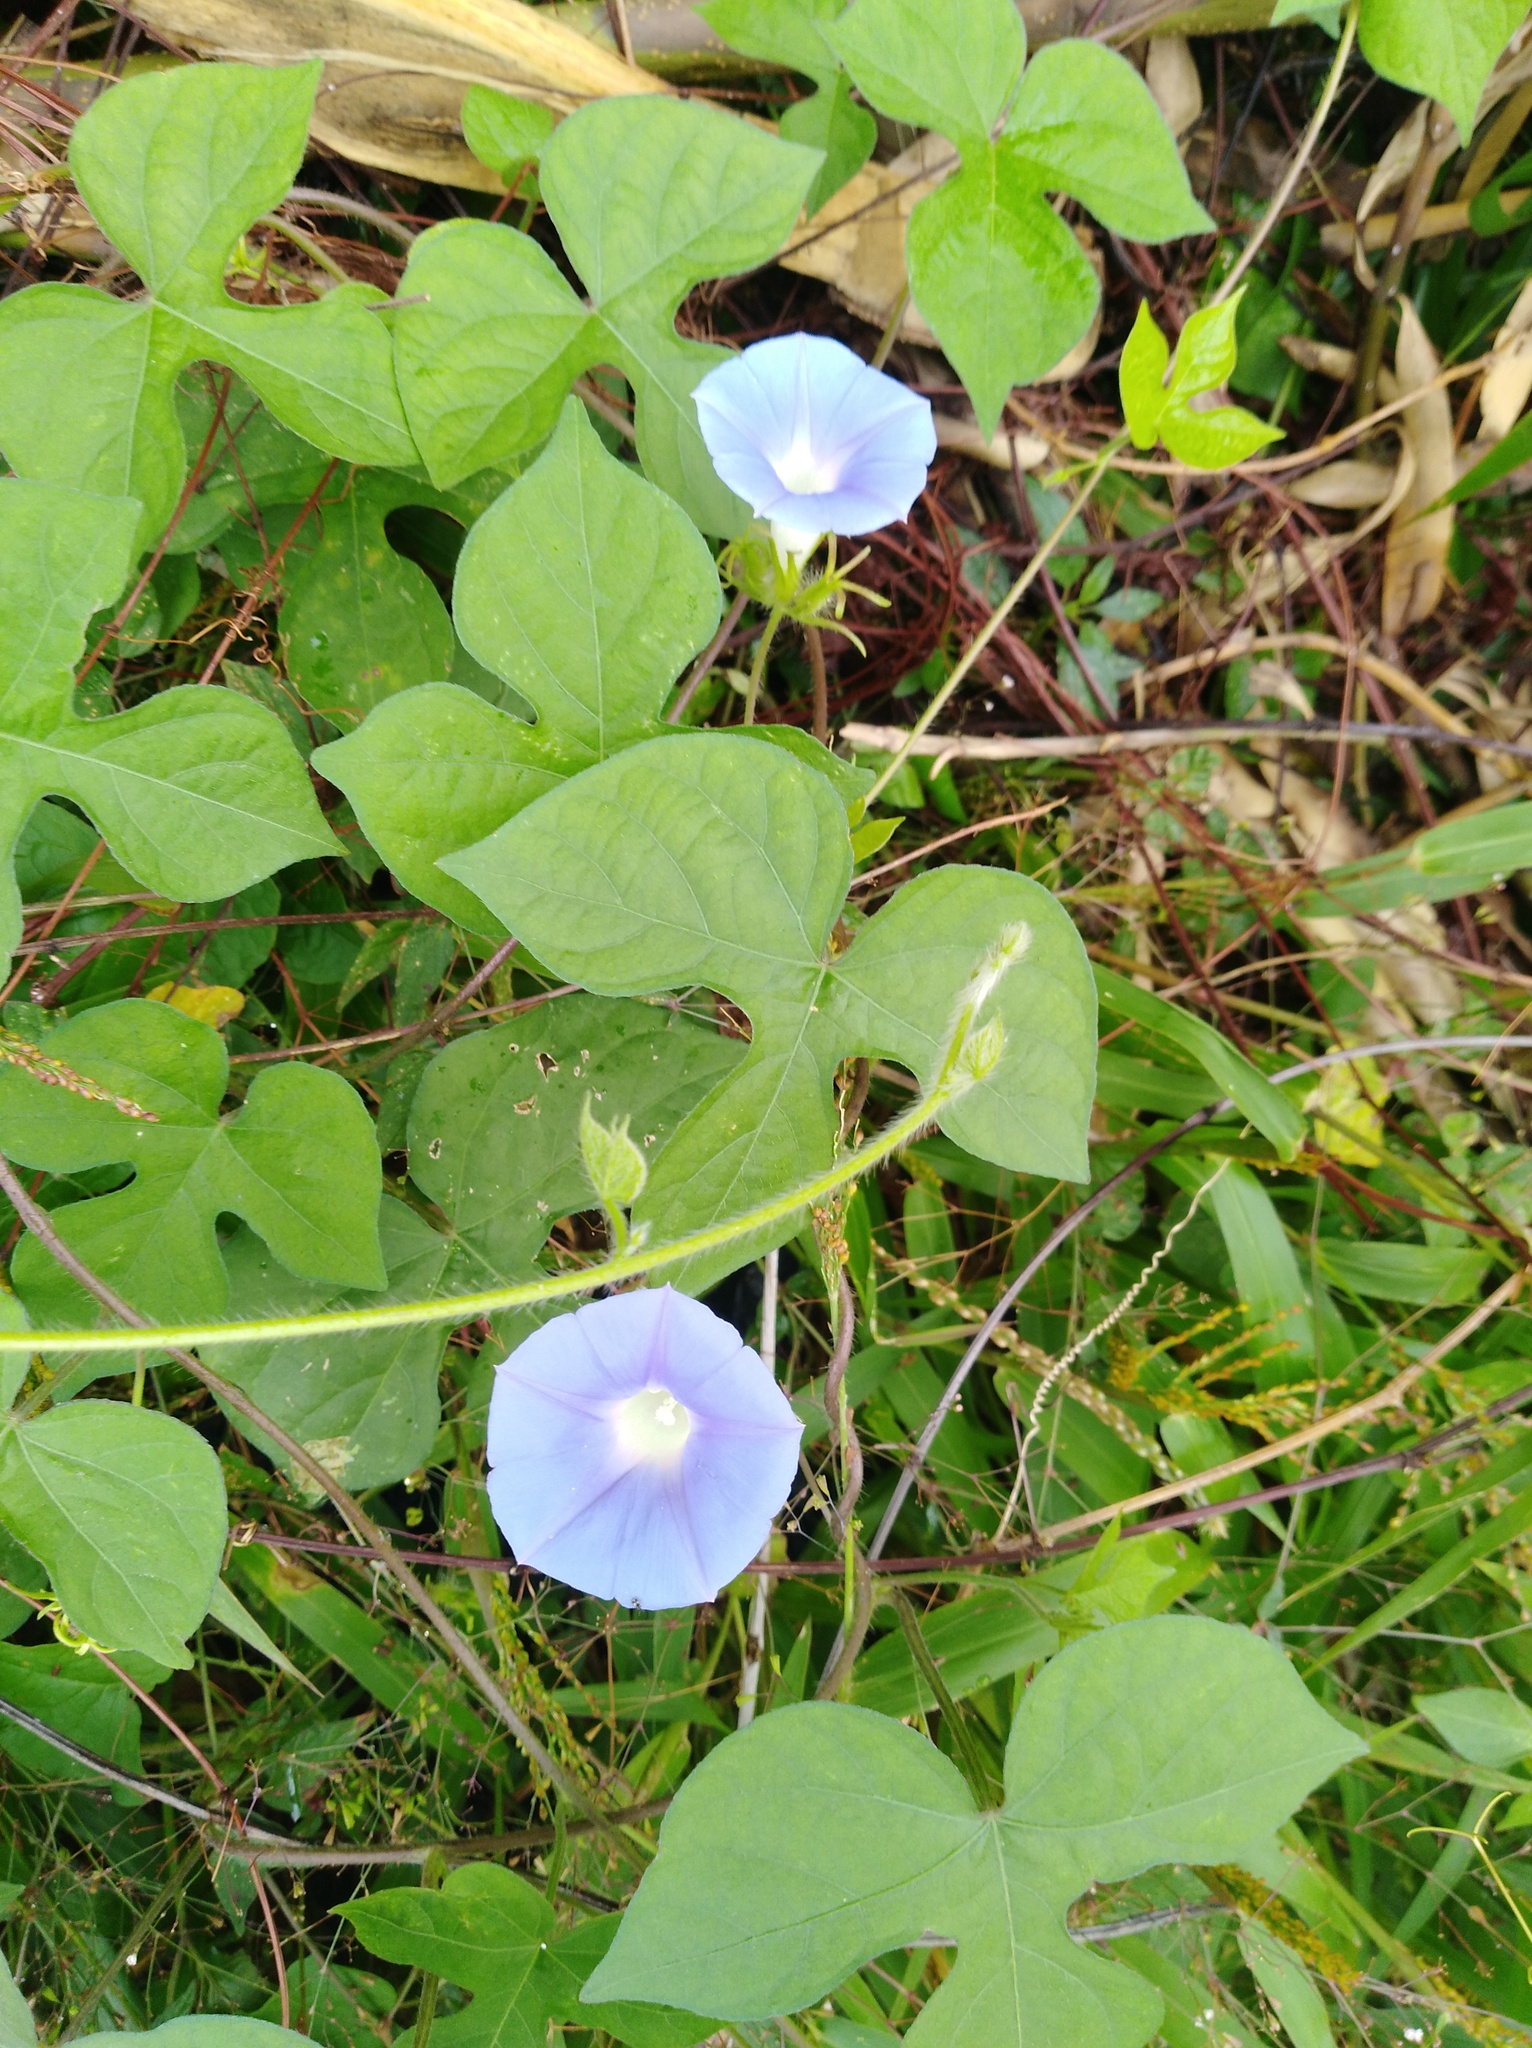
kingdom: Plantae
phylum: Tracheophyta
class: Magnoliopsida
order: Solanales
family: Convolvulaceae
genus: Ipomoea
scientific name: Ipomoea hederacea
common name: Ivy-leaved morning-glory
